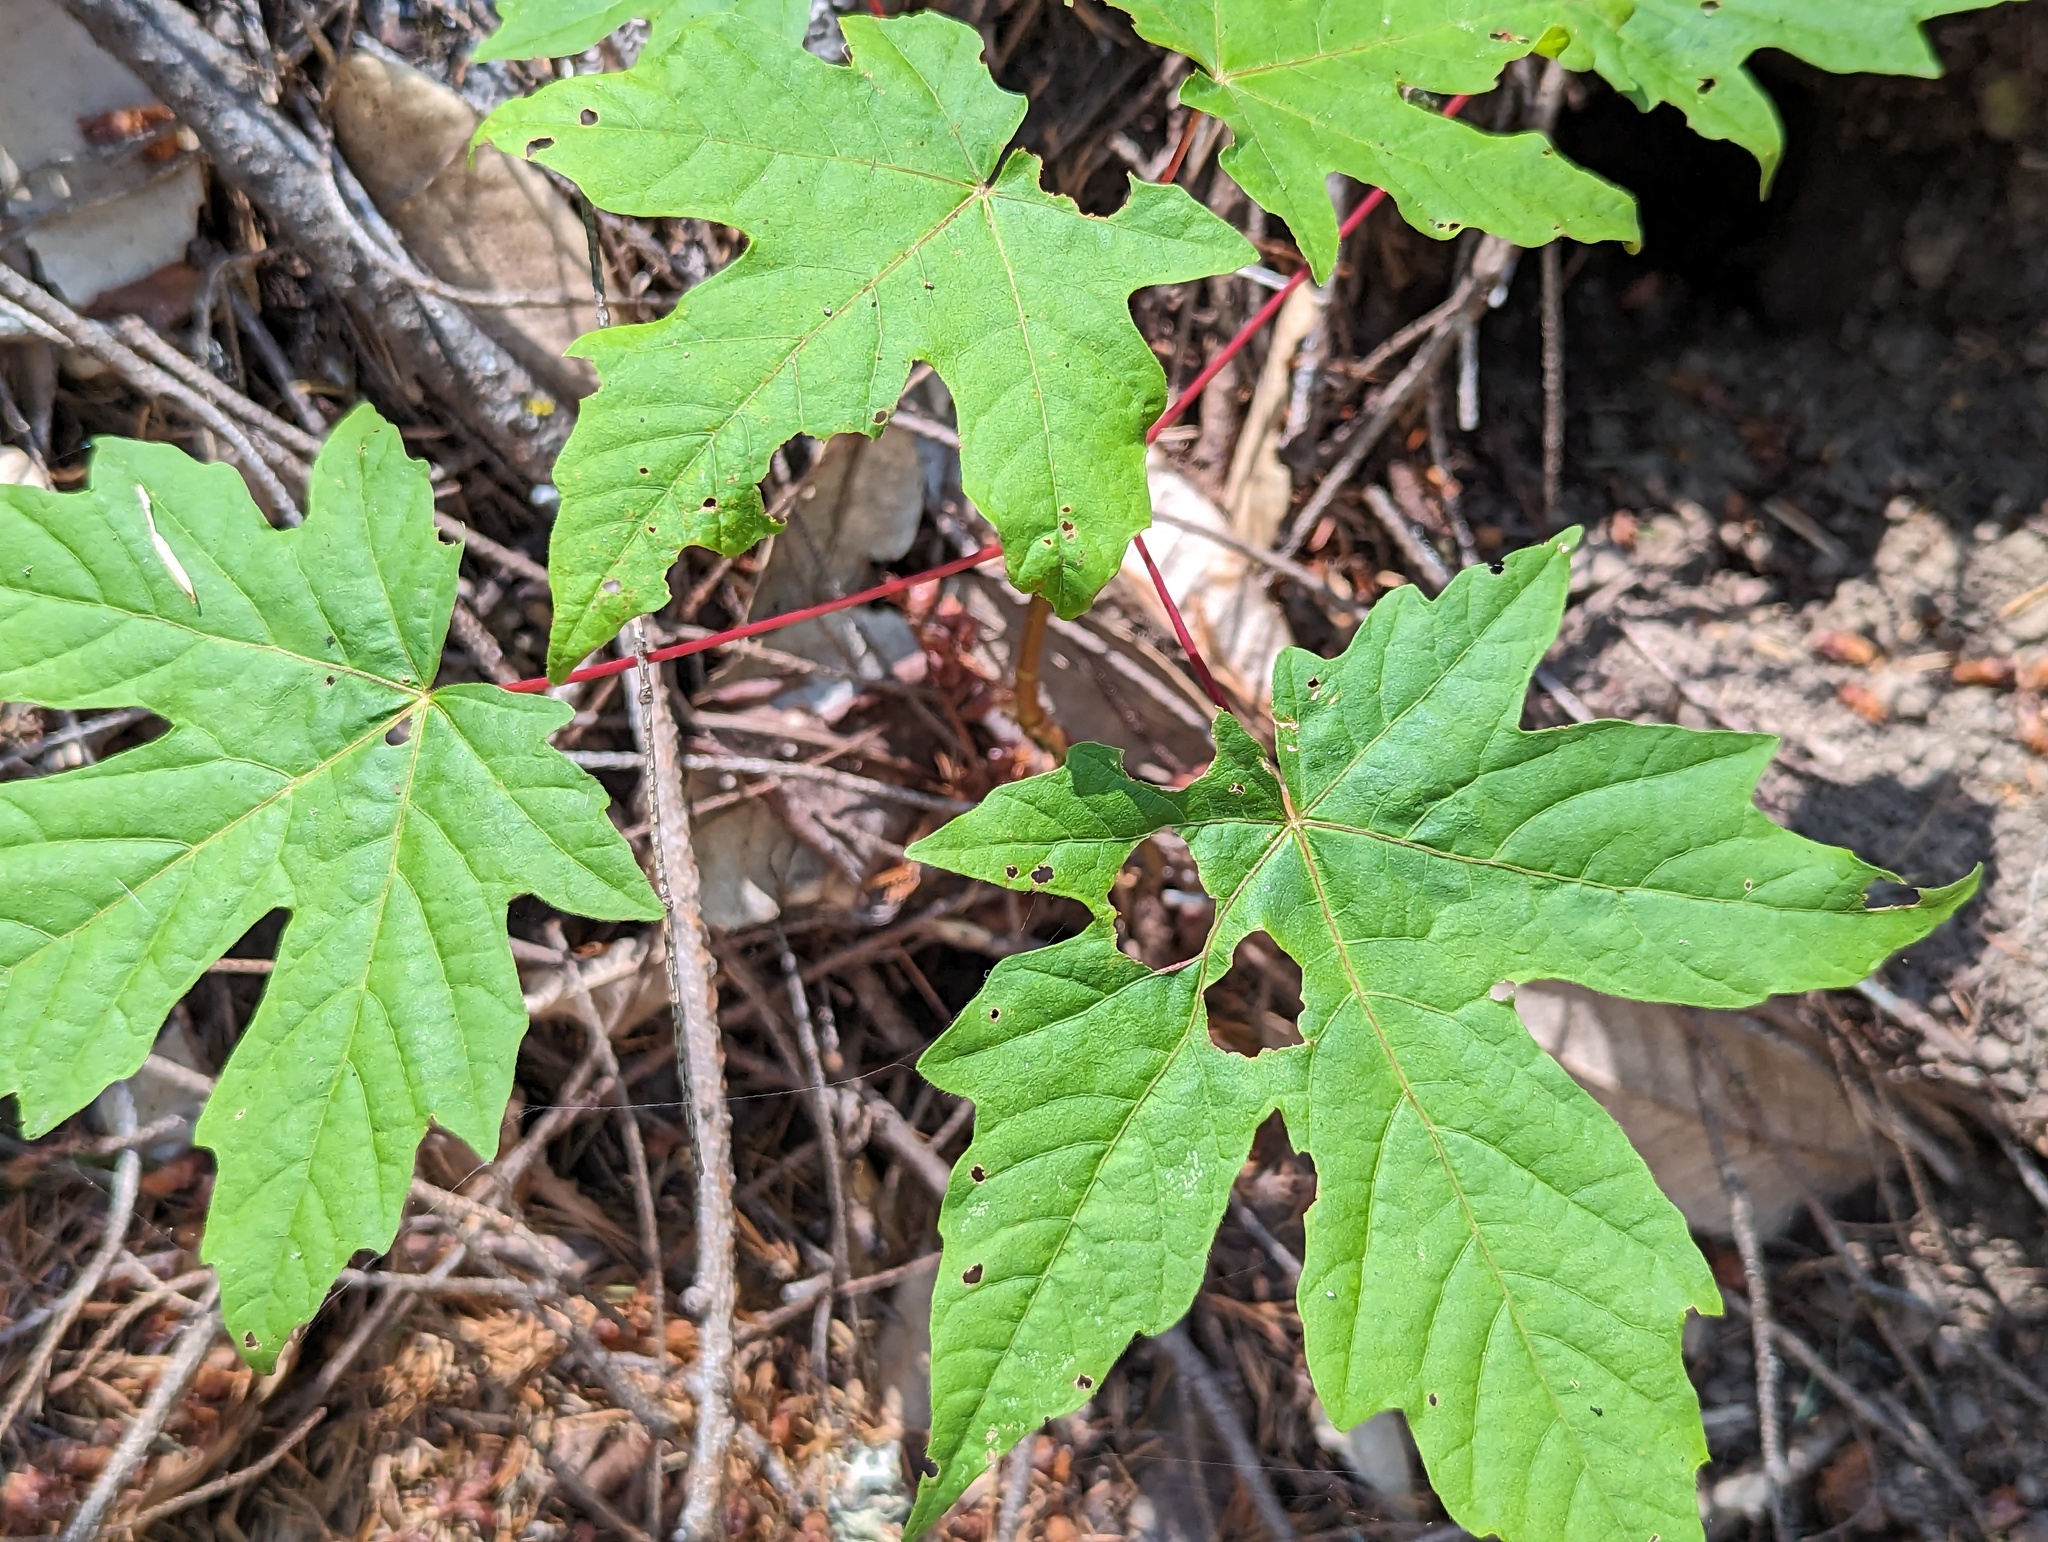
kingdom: Plantae
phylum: Tracheophyta
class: Magnoliopsida
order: Sapindales
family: Sapindaceae
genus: Acer
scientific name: Acer macrophyllum
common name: Oregon maple
